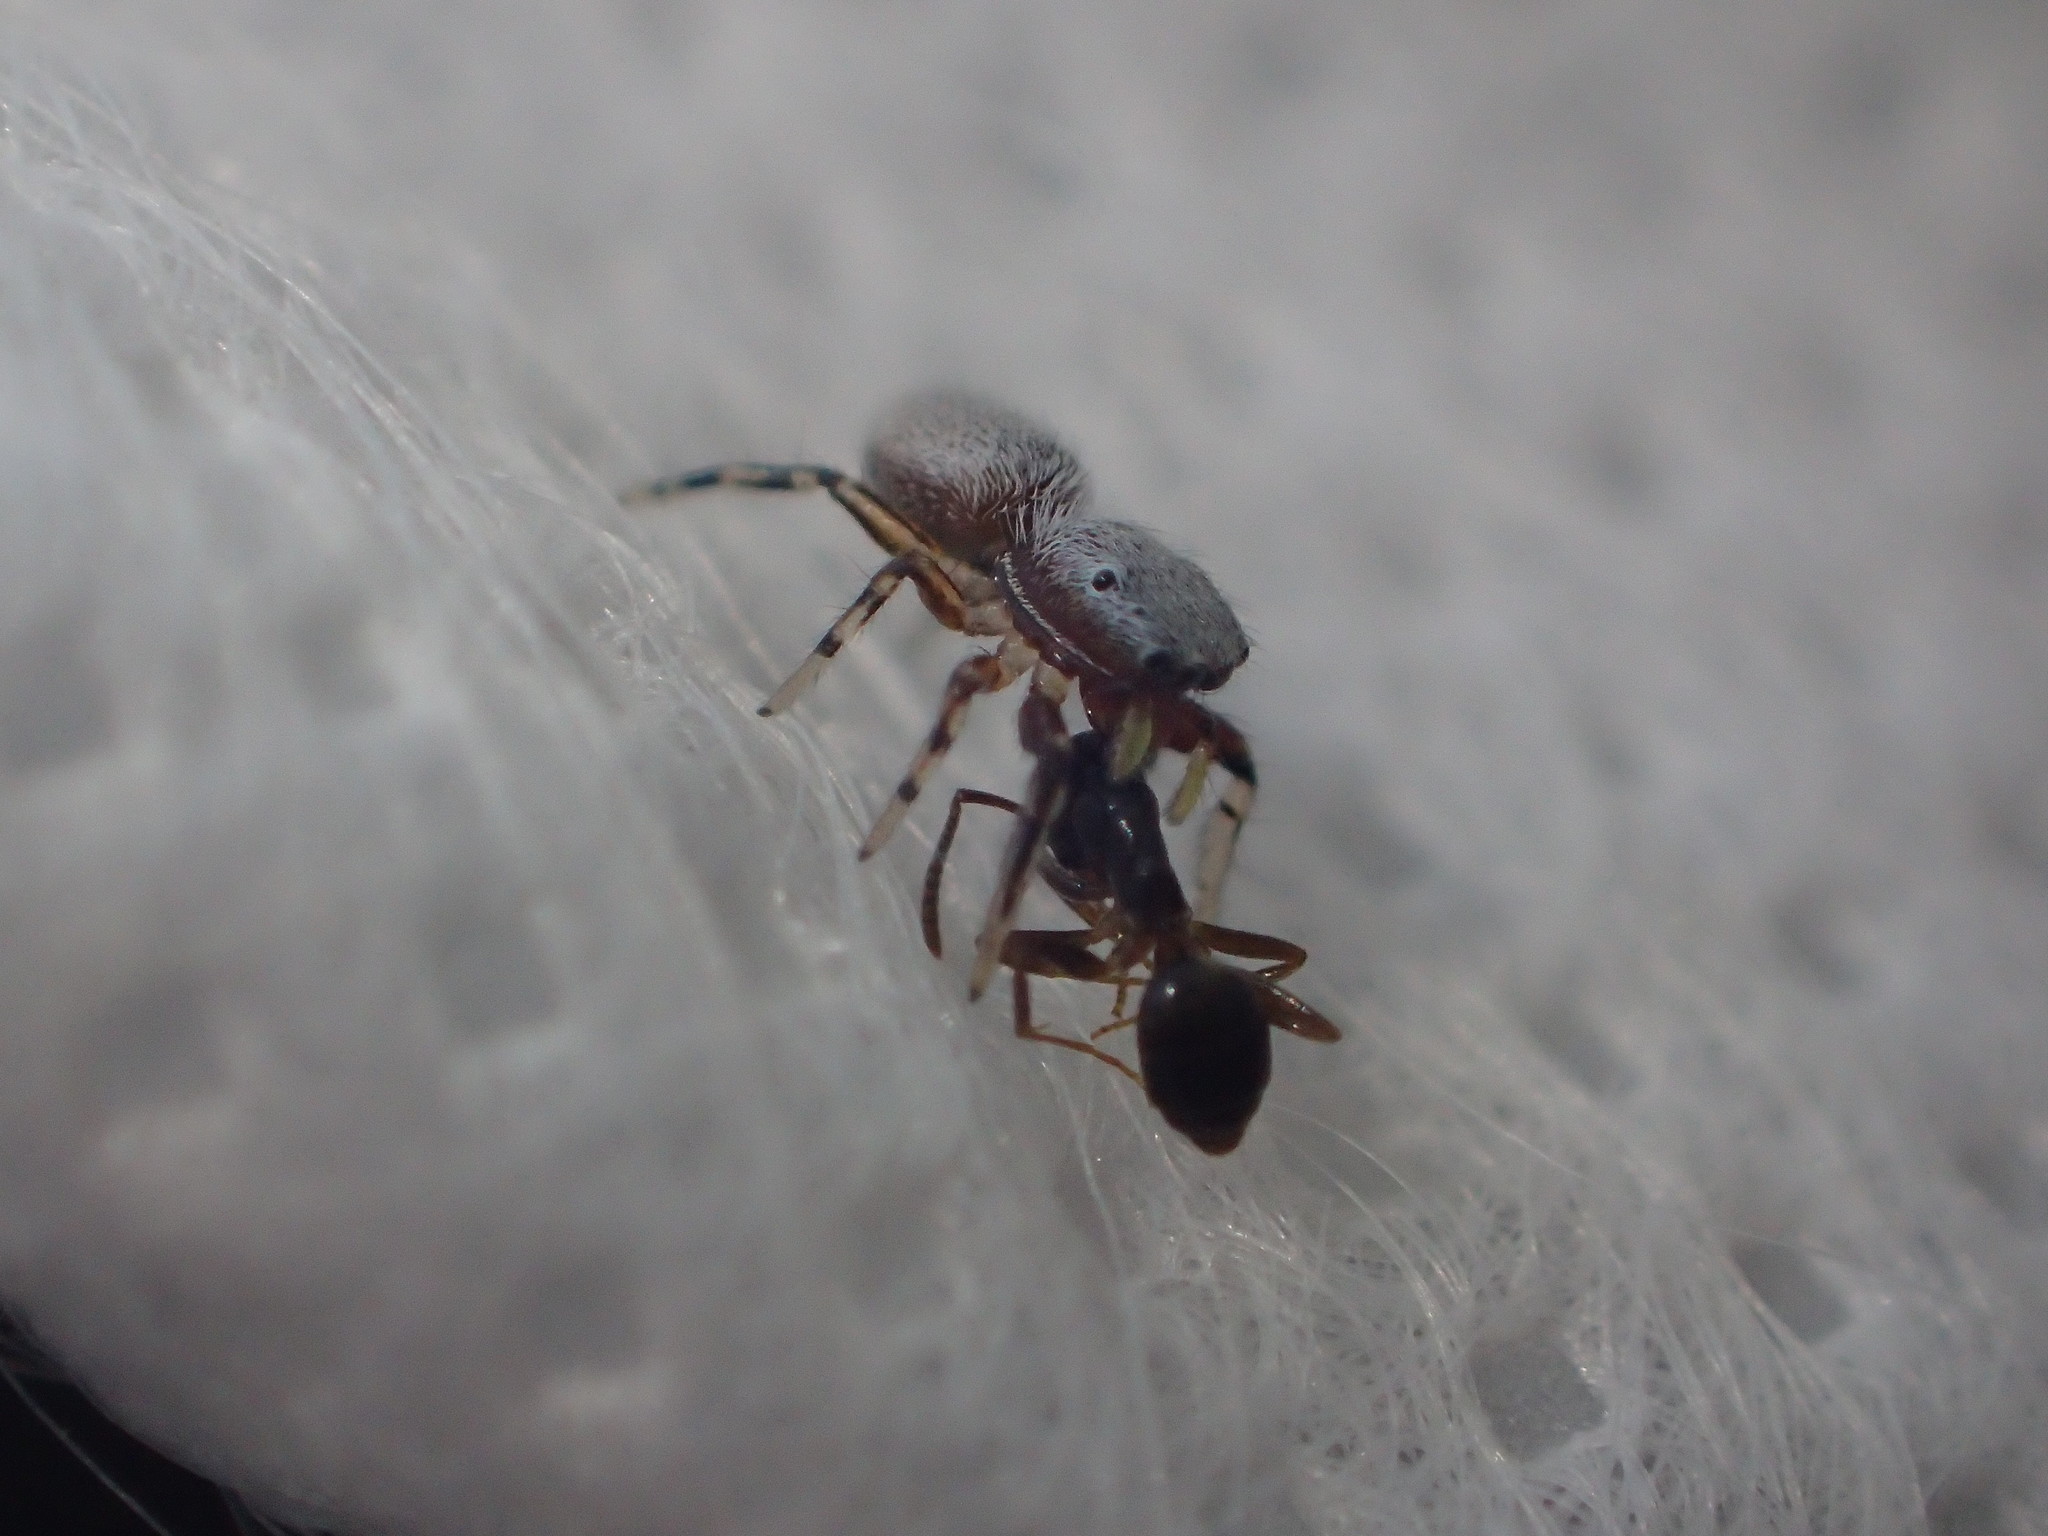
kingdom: Animalia
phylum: Arthropoda
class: Arachnida
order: Araneae
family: Salticidae
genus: Tutelina
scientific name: Tutelina similis
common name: Thick-spined jumping spider
